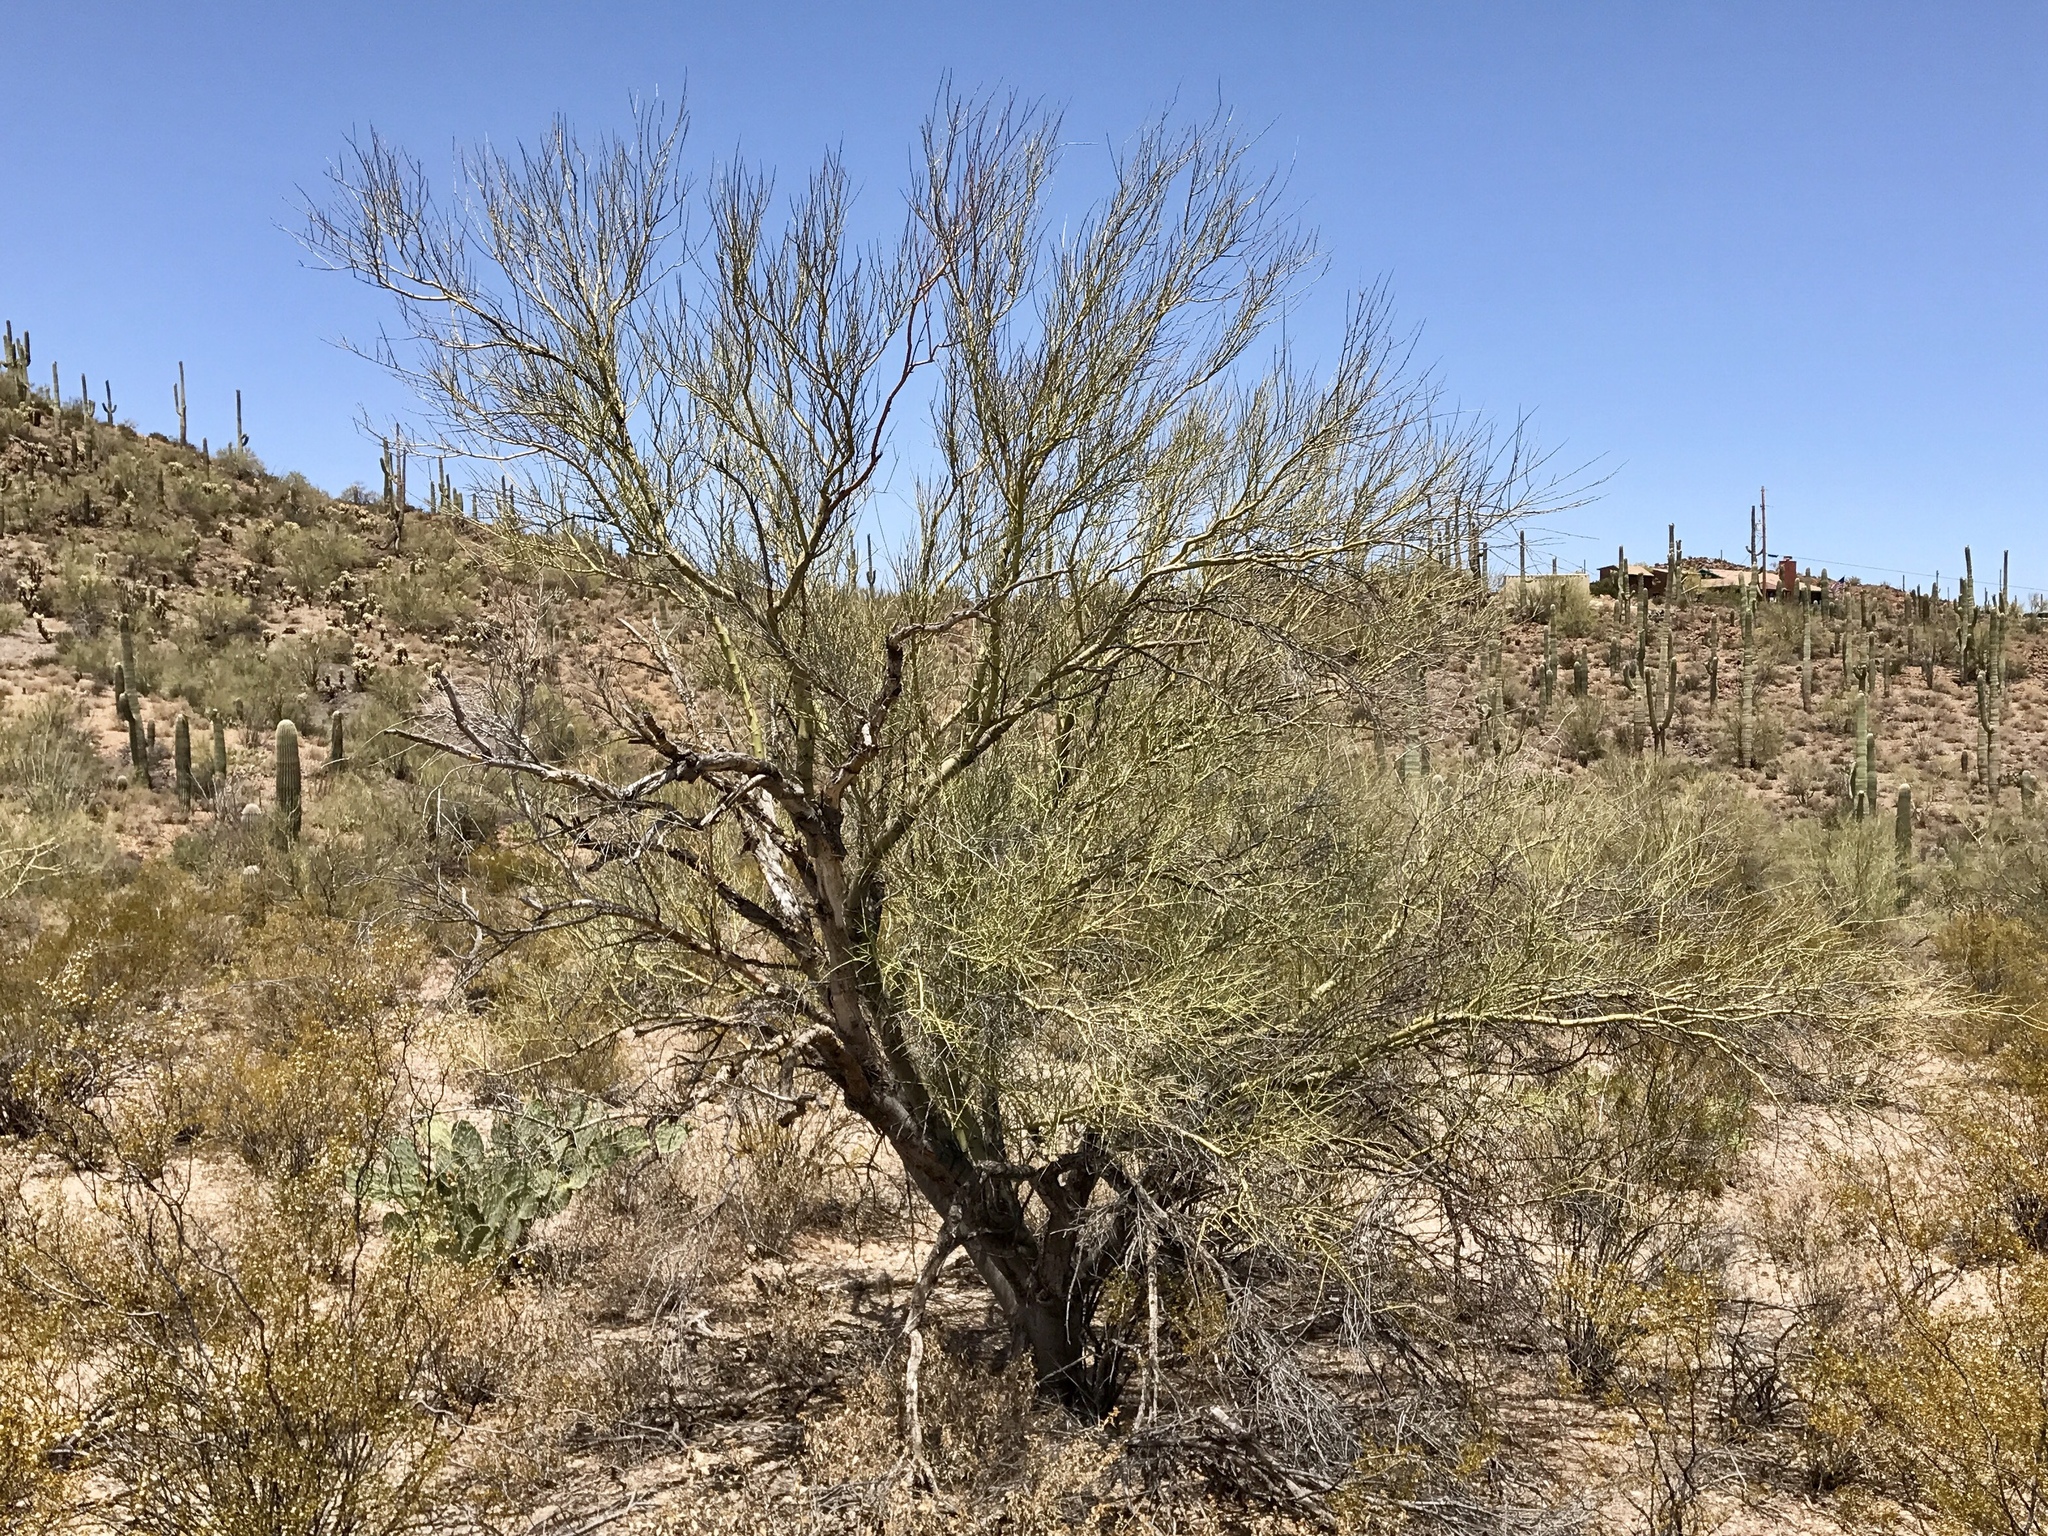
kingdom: Plantae
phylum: Tracheophyta
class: Magnoliopsida
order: Fabales
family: Fabaceae
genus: Parkinsonia
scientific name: Parkinsonia microphylla
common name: Yellow paloverde
